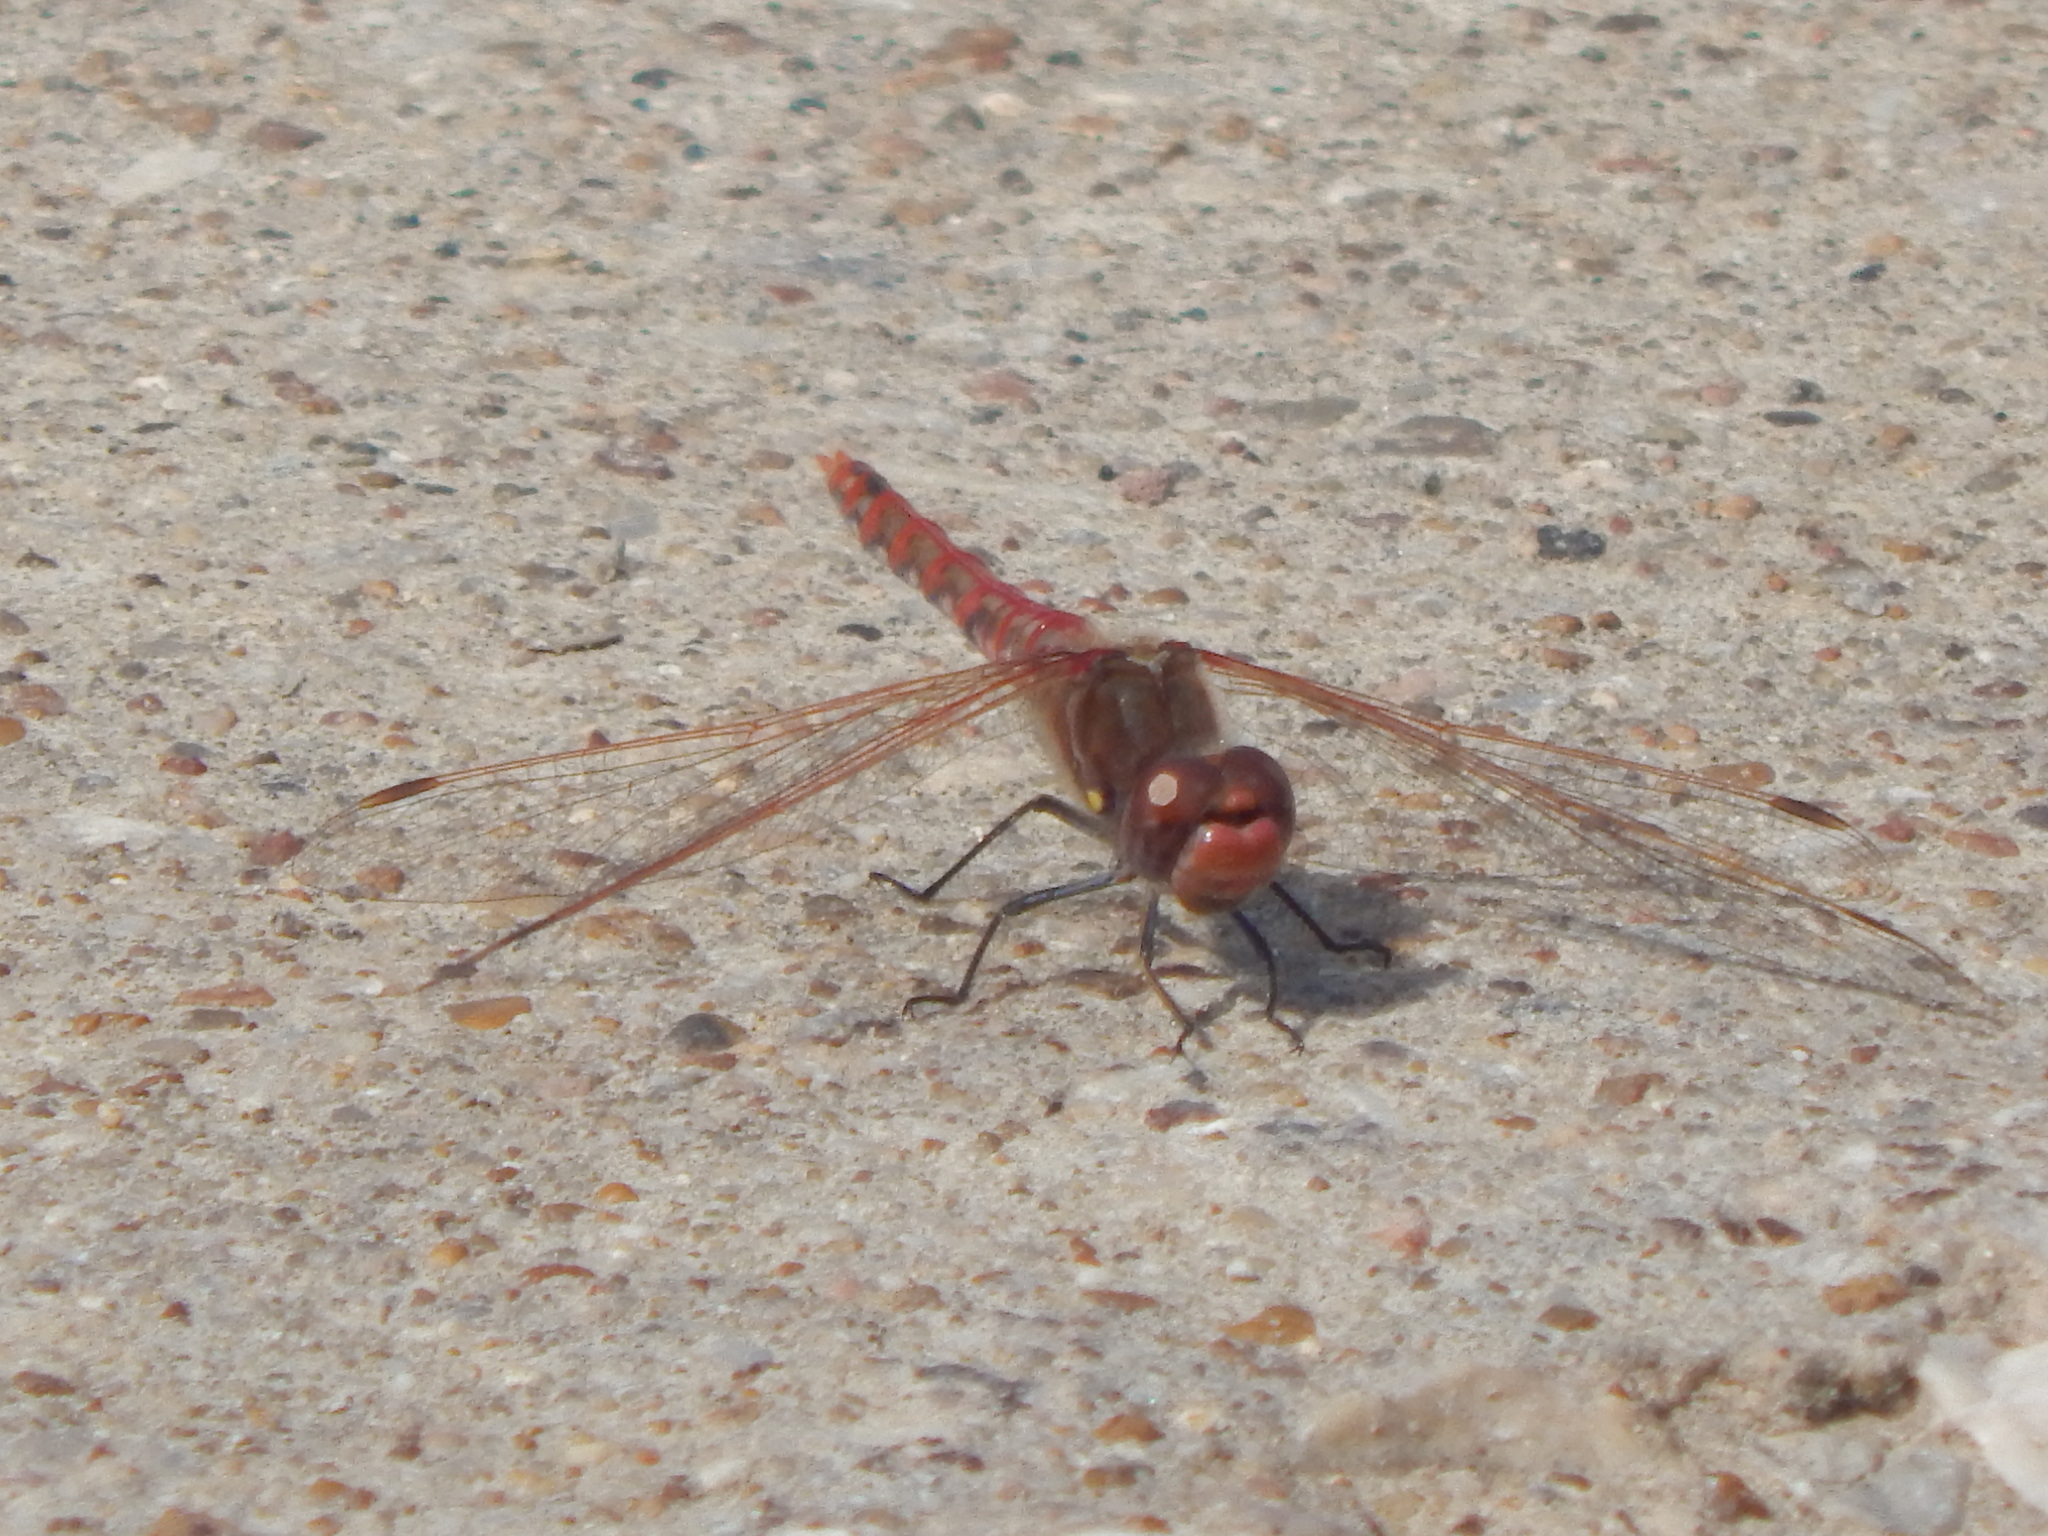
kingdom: Animalia
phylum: Arthropoda
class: Insecta
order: Odonata
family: Libellulidae
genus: Sympetrum
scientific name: Sympetrum corruptum
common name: Variegated meadowhawk
